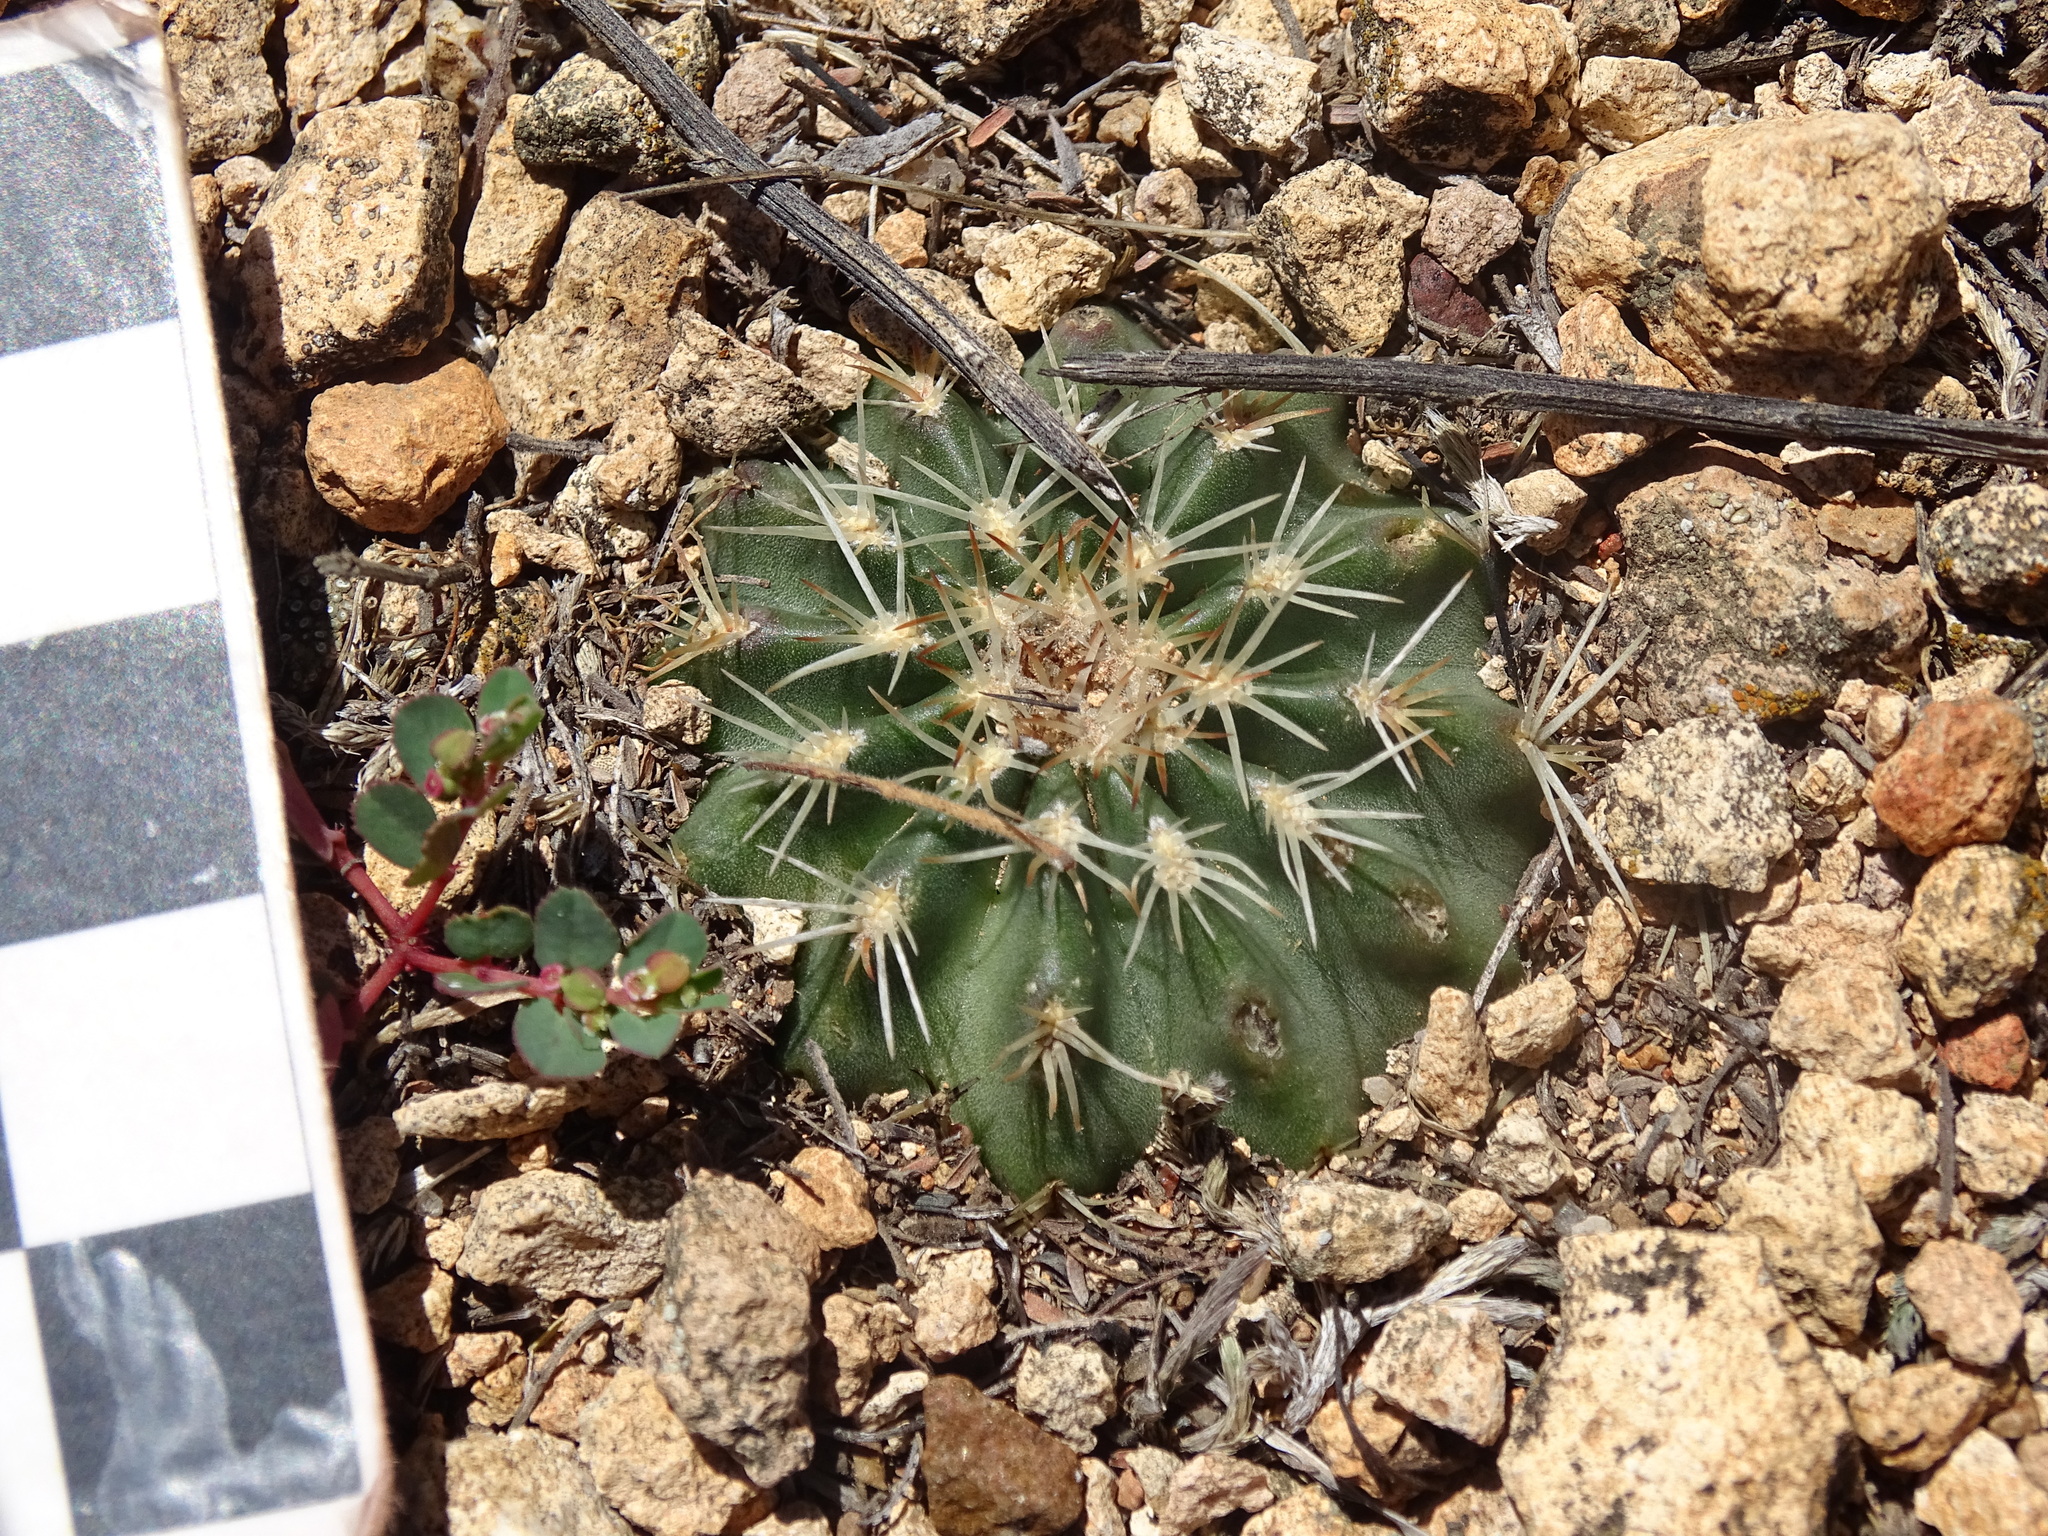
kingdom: Plantae
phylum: Tracheophyta
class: Magnoliopsida
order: Caryophyllales
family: Cactaceae
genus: Echinocereus
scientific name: Echinocereus weinbergii
